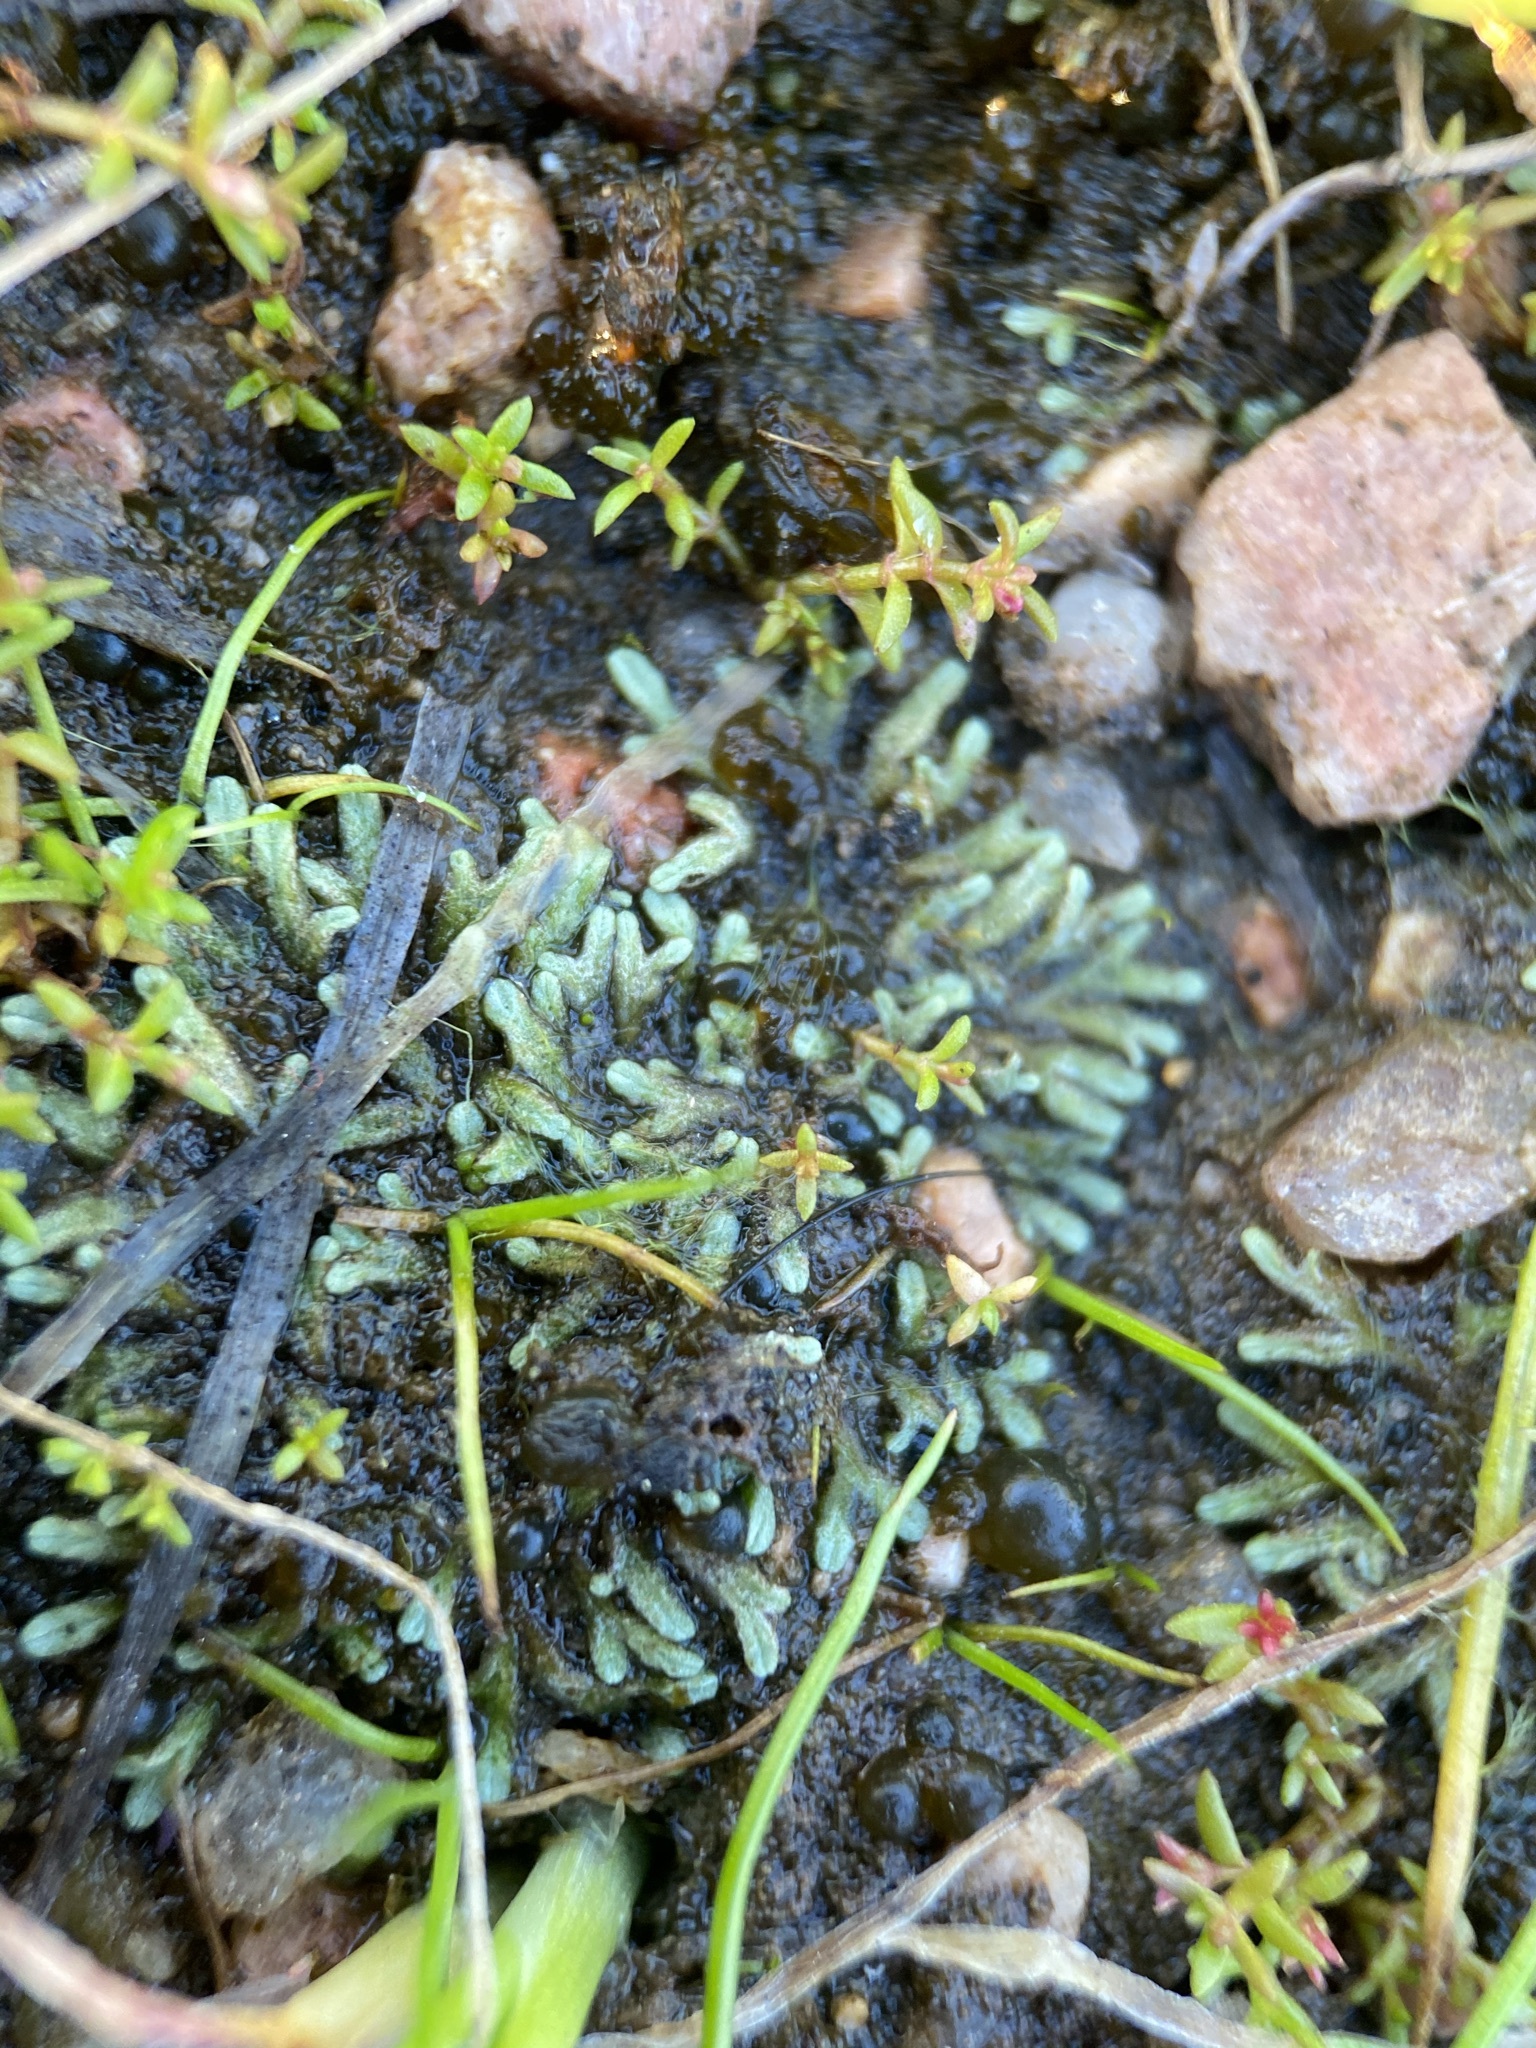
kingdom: Plantae
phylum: Marchantiophyta
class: Marchantiopsida
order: Marchantiales
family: Ricciaceae
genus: Riccia
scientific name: Riccia fluitans
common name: Floating crystalwort
